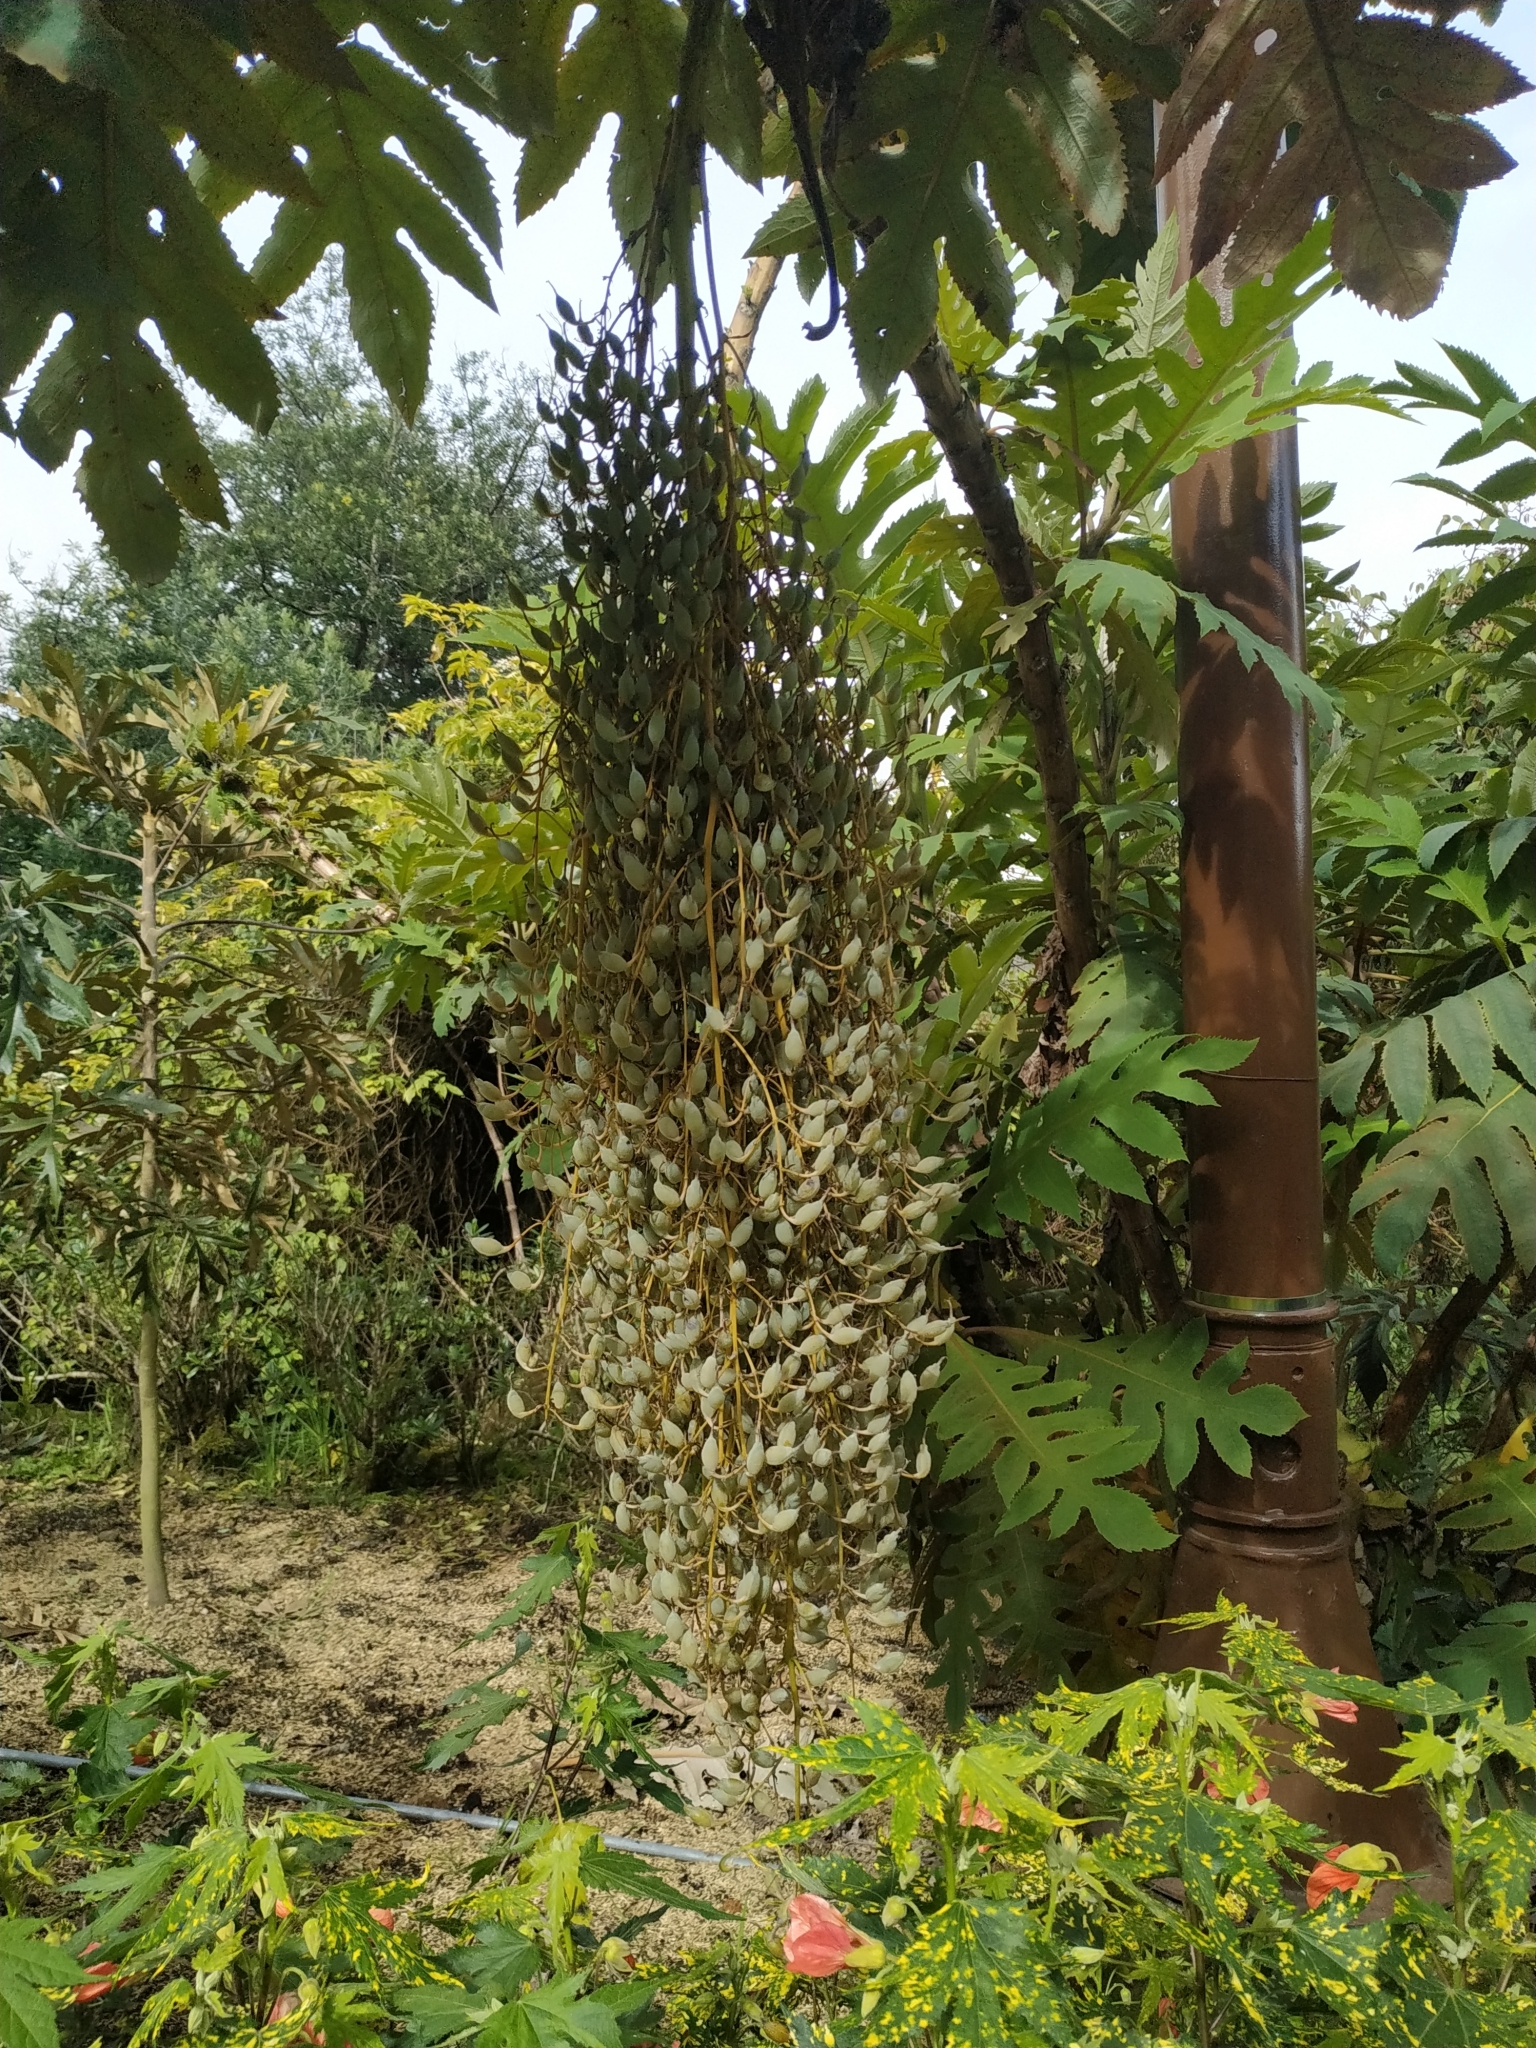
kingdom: Plantae
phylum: Tracheophyta
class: Magnoliopsida
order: Ranunculales
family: Papaveraceae
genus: Bocconia
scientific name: Bocconia frutescens
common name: Tree poppy
